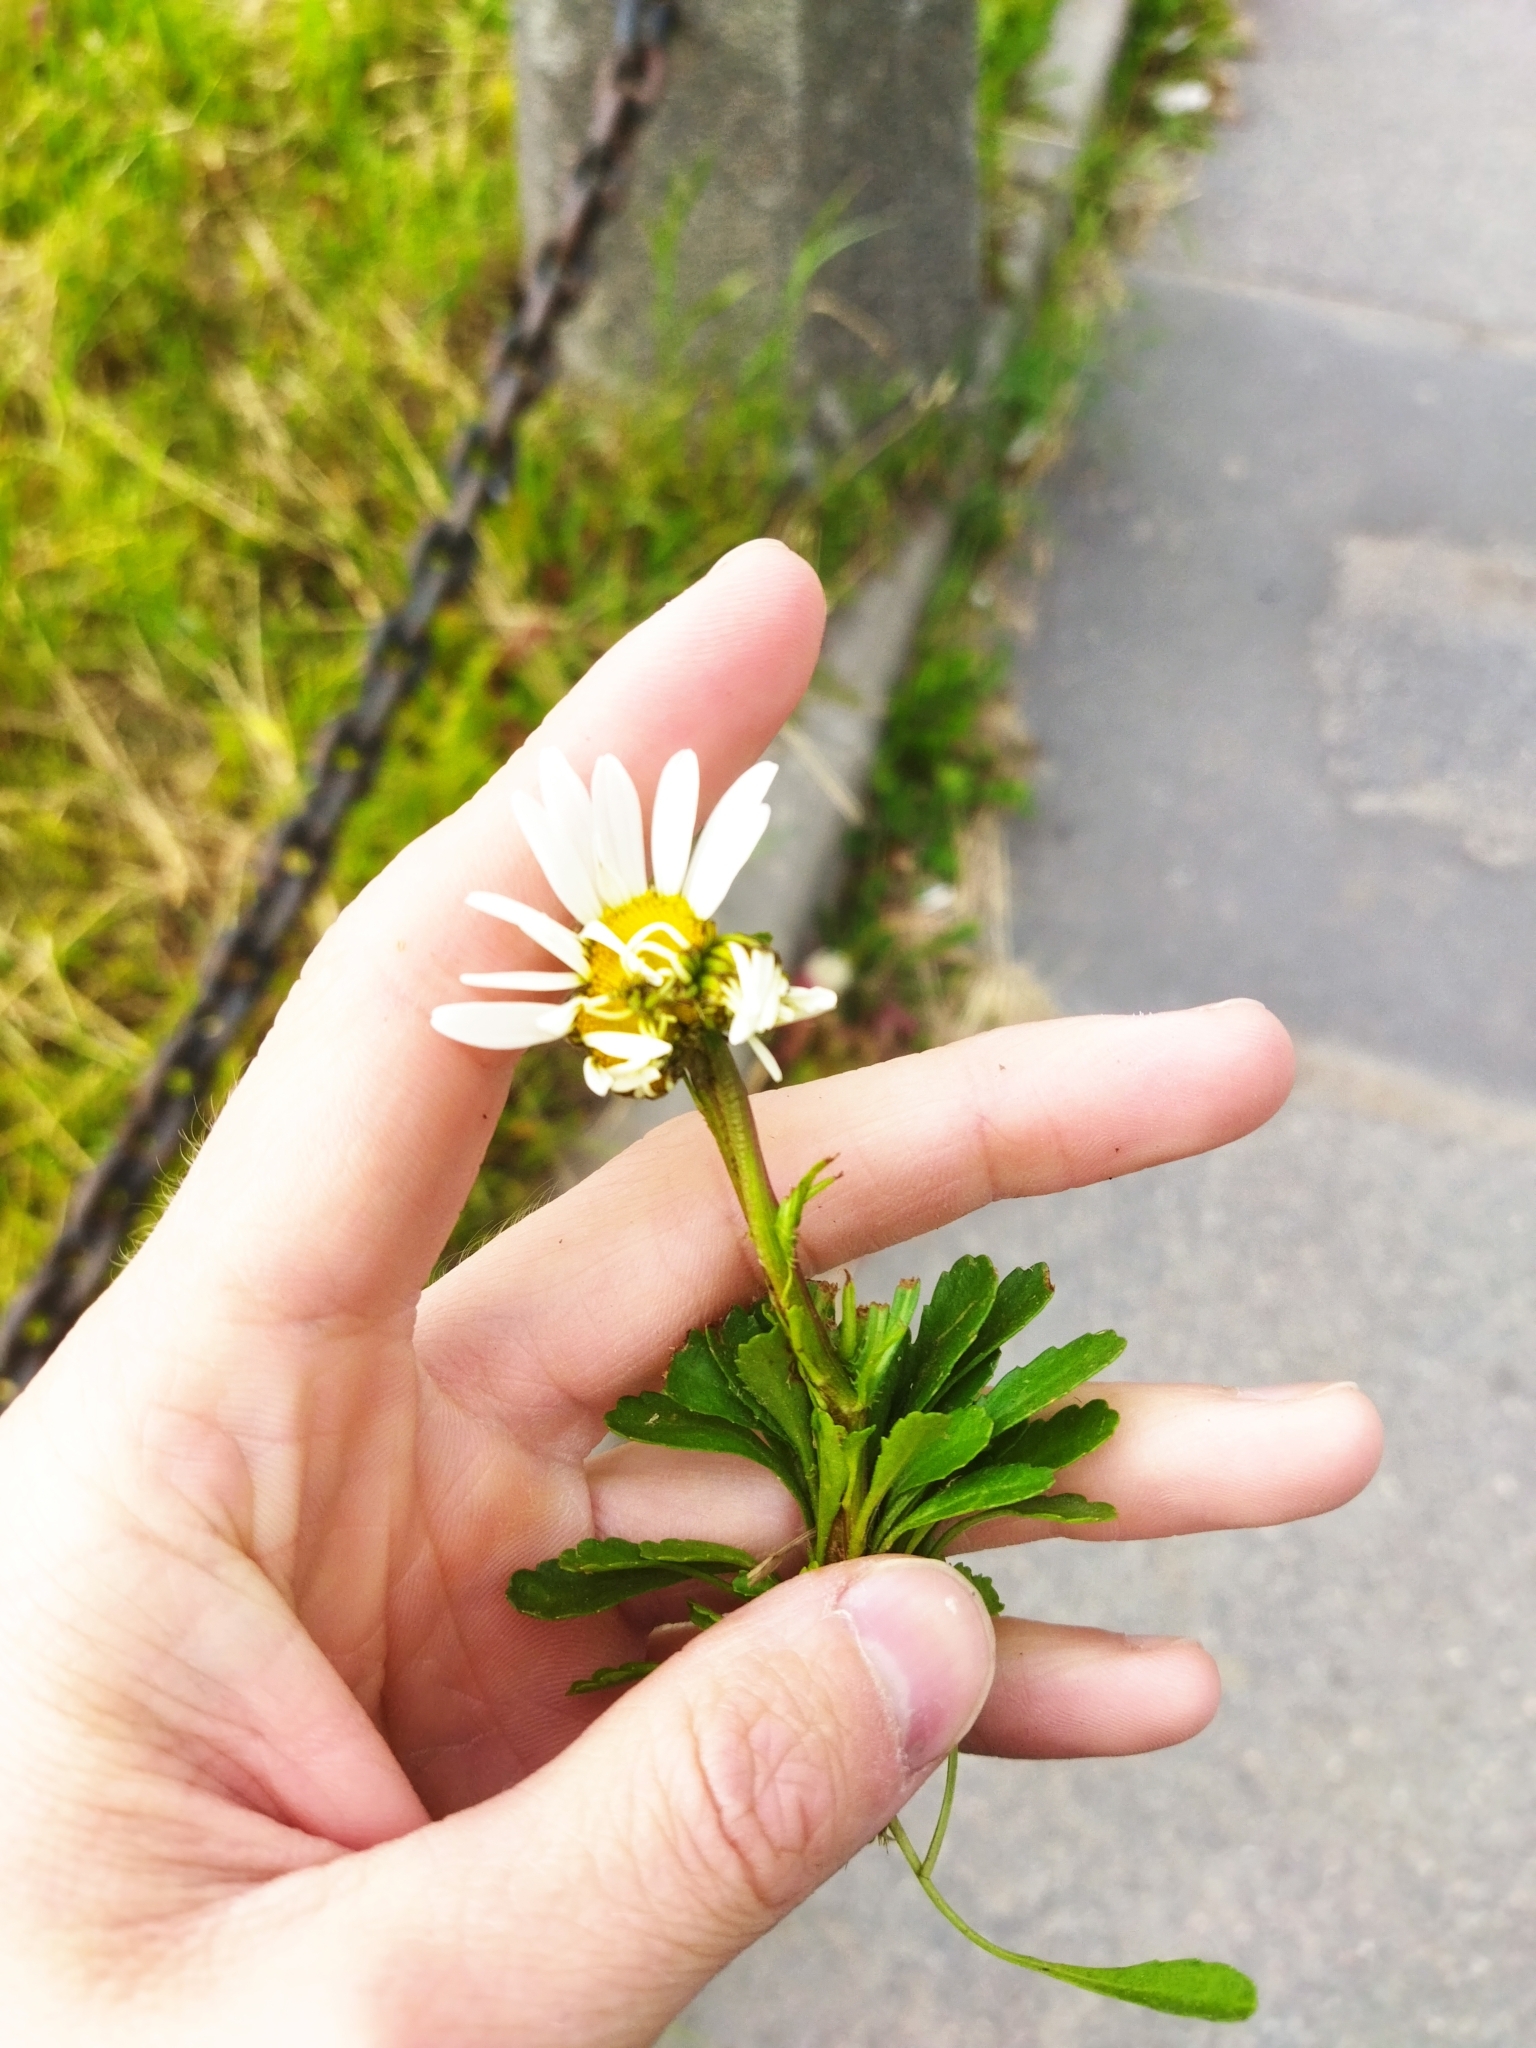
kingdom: Plantae
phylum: Tracheophyta
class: Magnoliopsida
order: Asterales
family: Asteraceae
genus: Leucanthemum
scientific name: Leucanthemum vulgare
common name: Oxeye daisy
